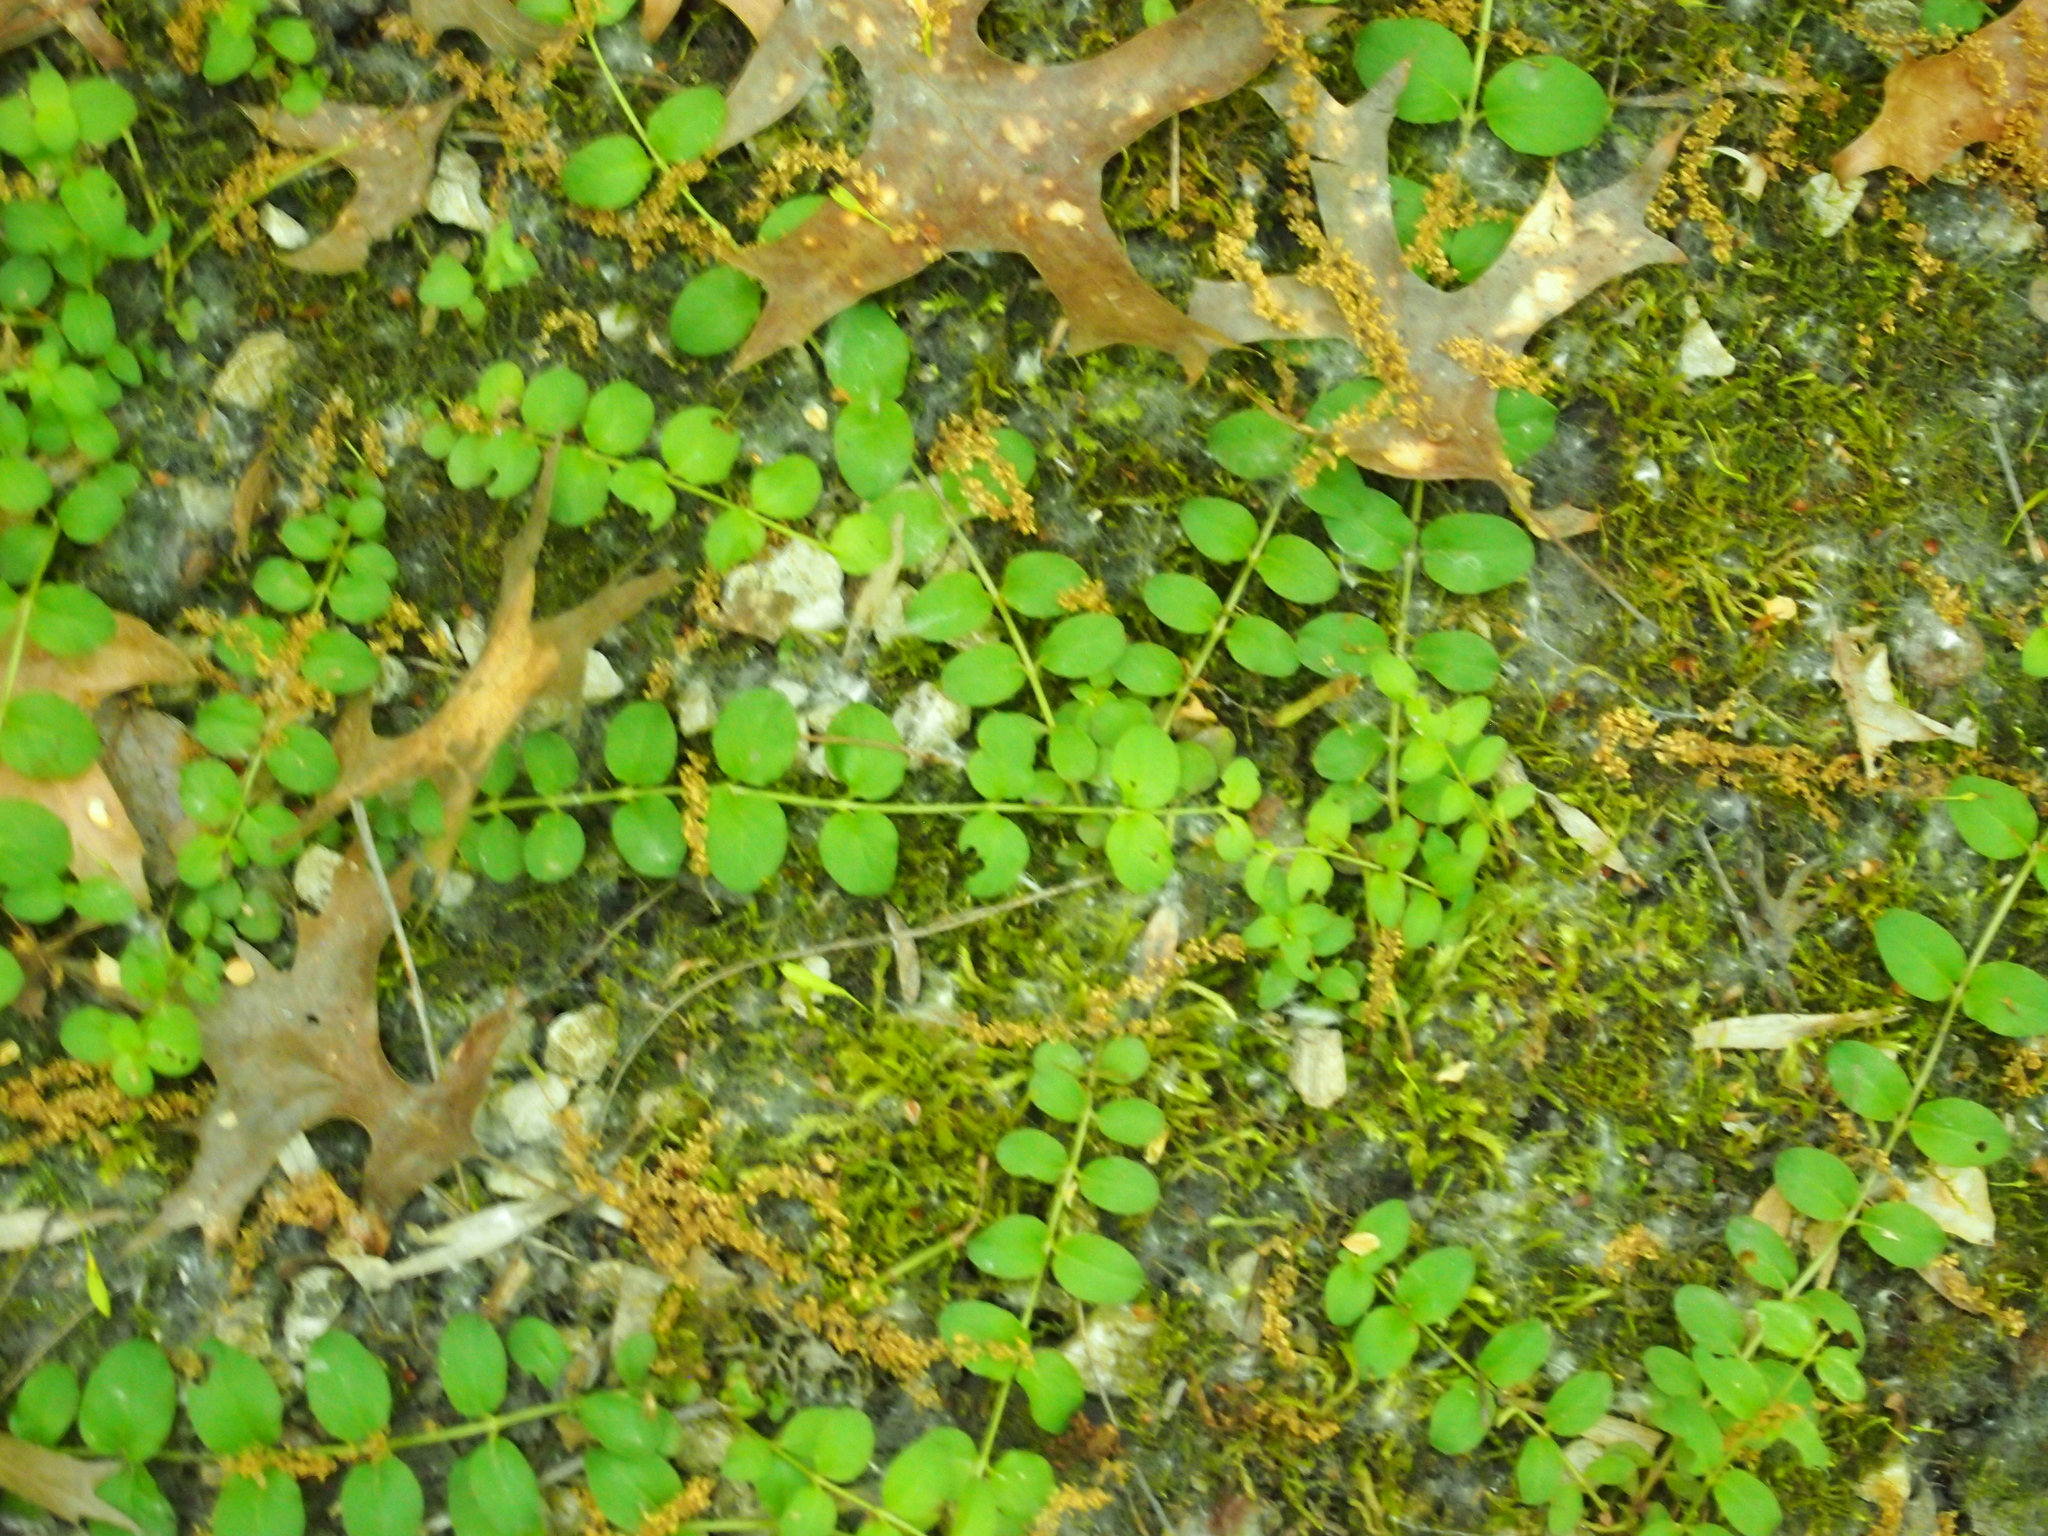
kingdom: Plantae
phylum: Tracheophyta
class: Magnoliopsida
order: Ericales
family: Primulaceae
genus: Lysimachia
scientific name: Lysimachia nummularia
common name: Moneywort
